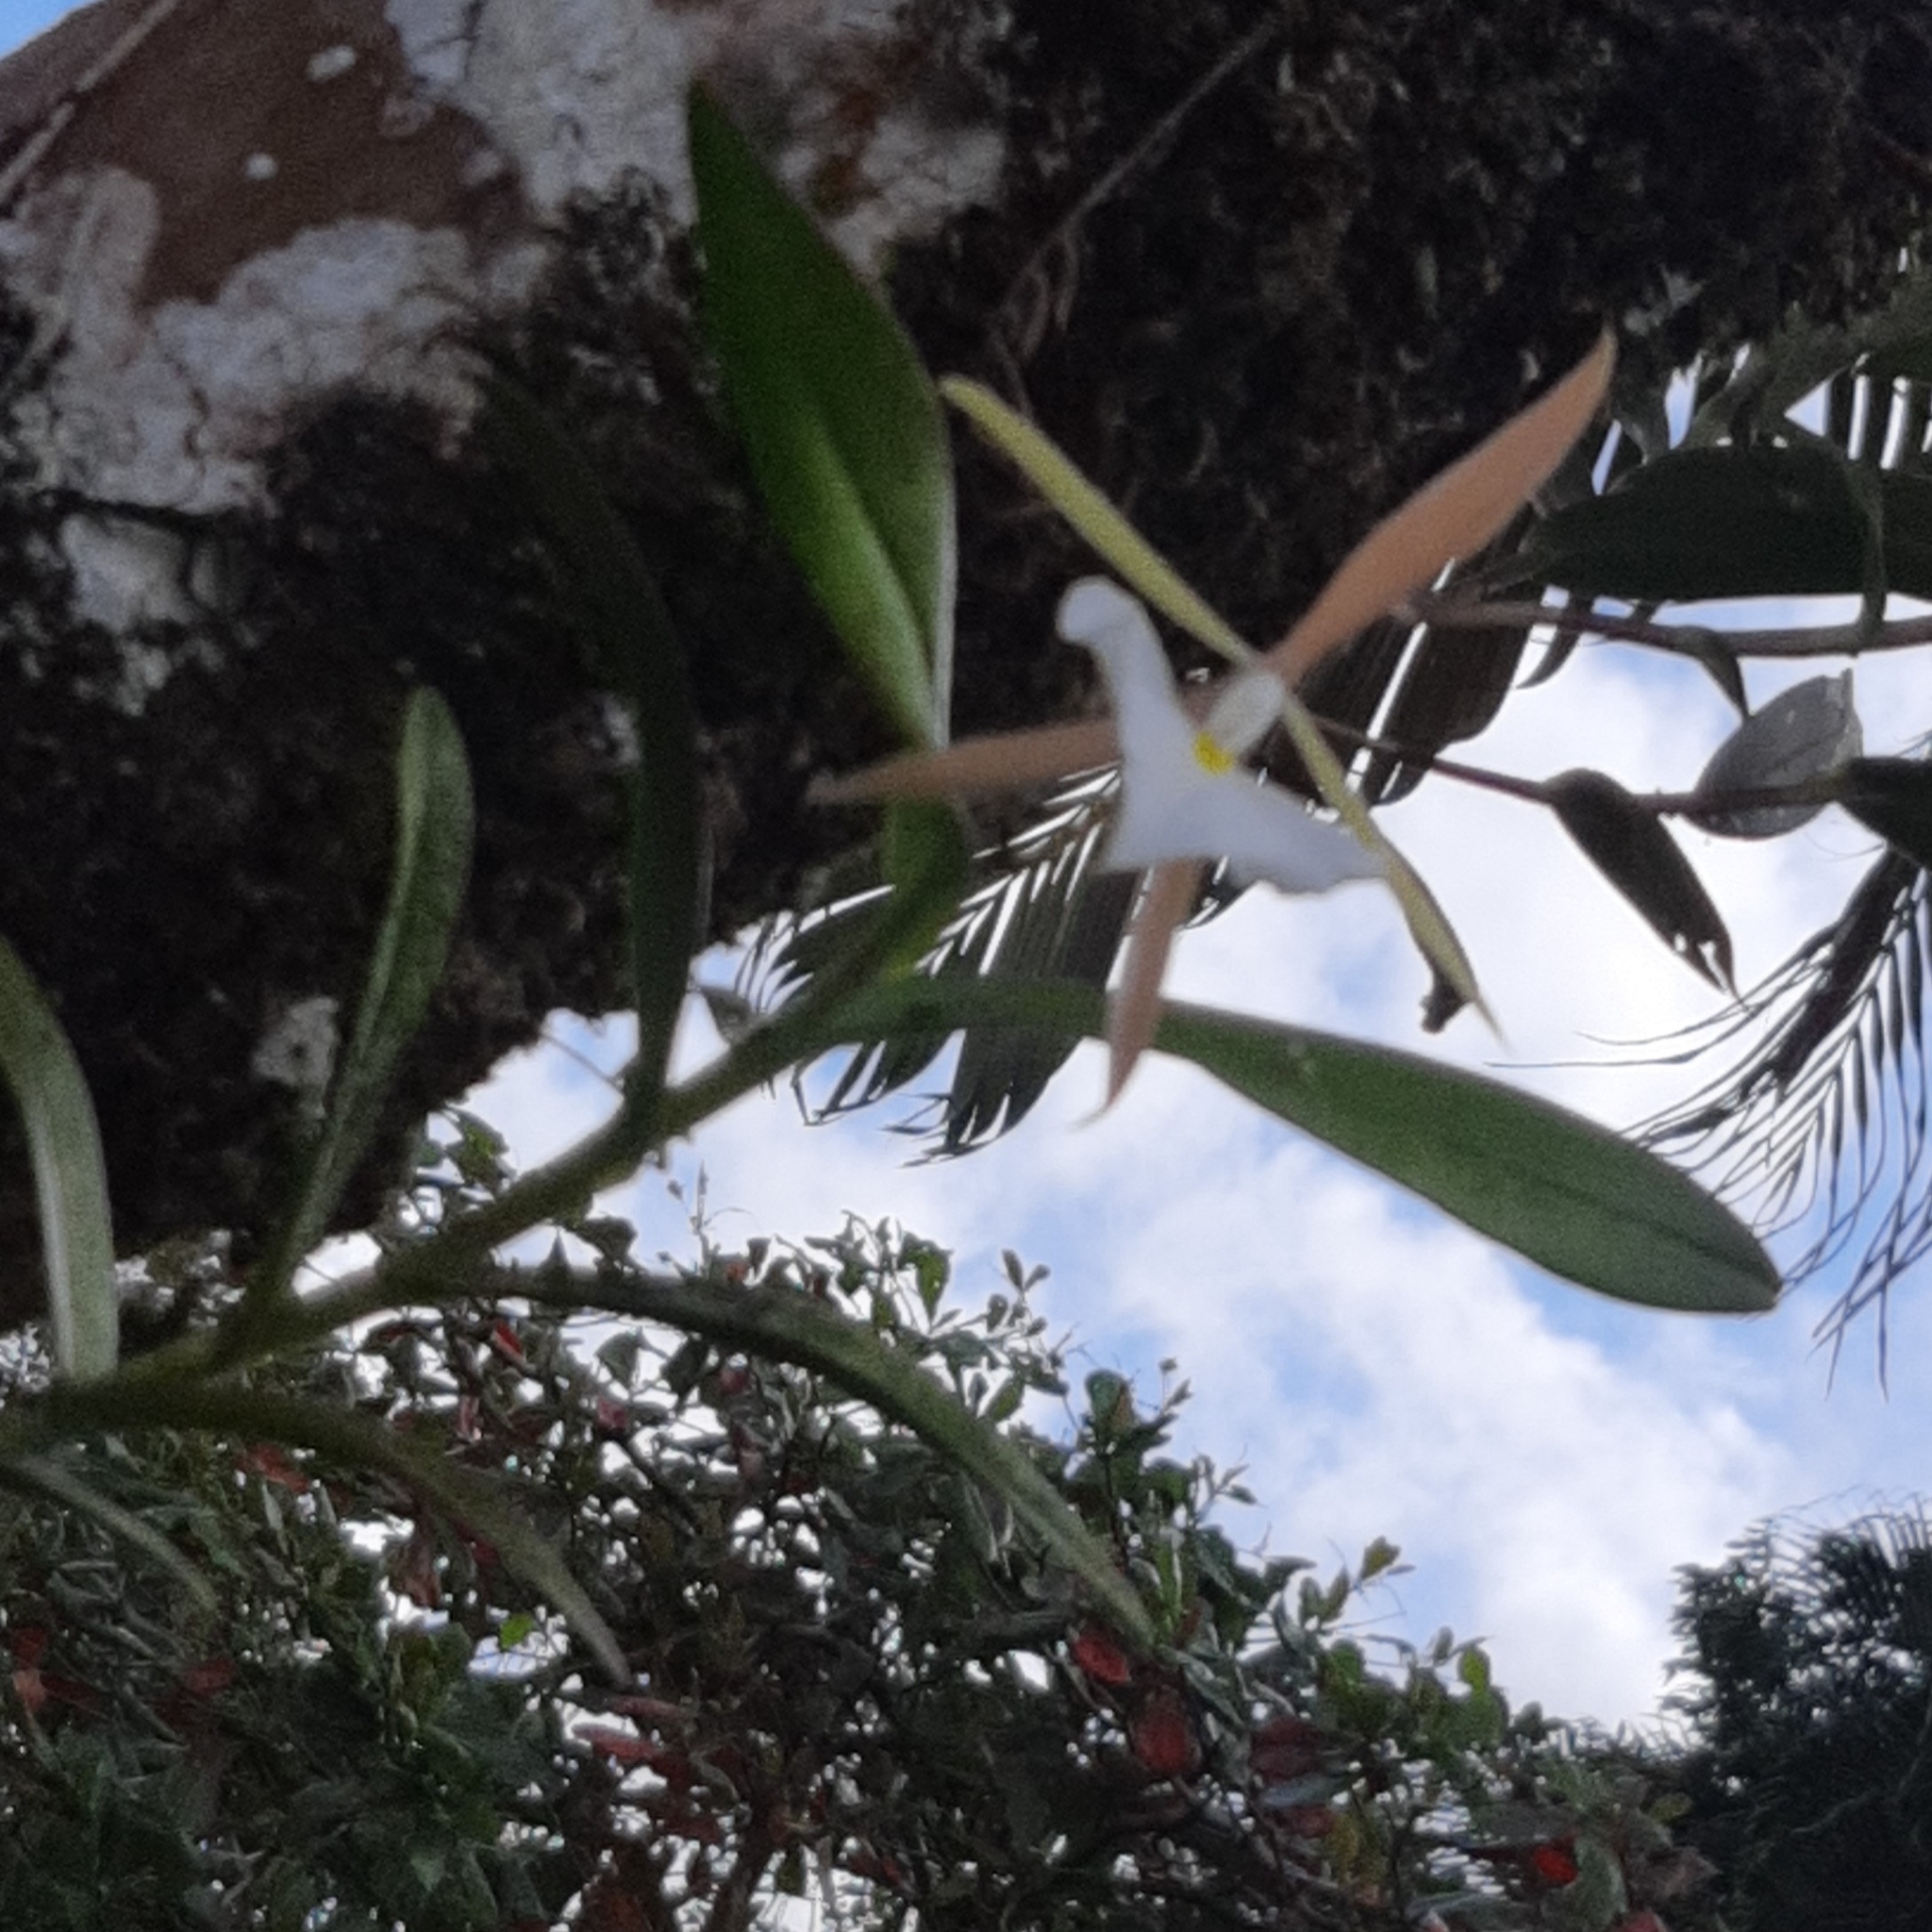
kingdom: Plantae
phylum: Tracheophyta
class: Liliopsida
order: Asparagales
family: Orchidaceae
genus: Epidendrum
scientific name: Epidendrum eburneum
